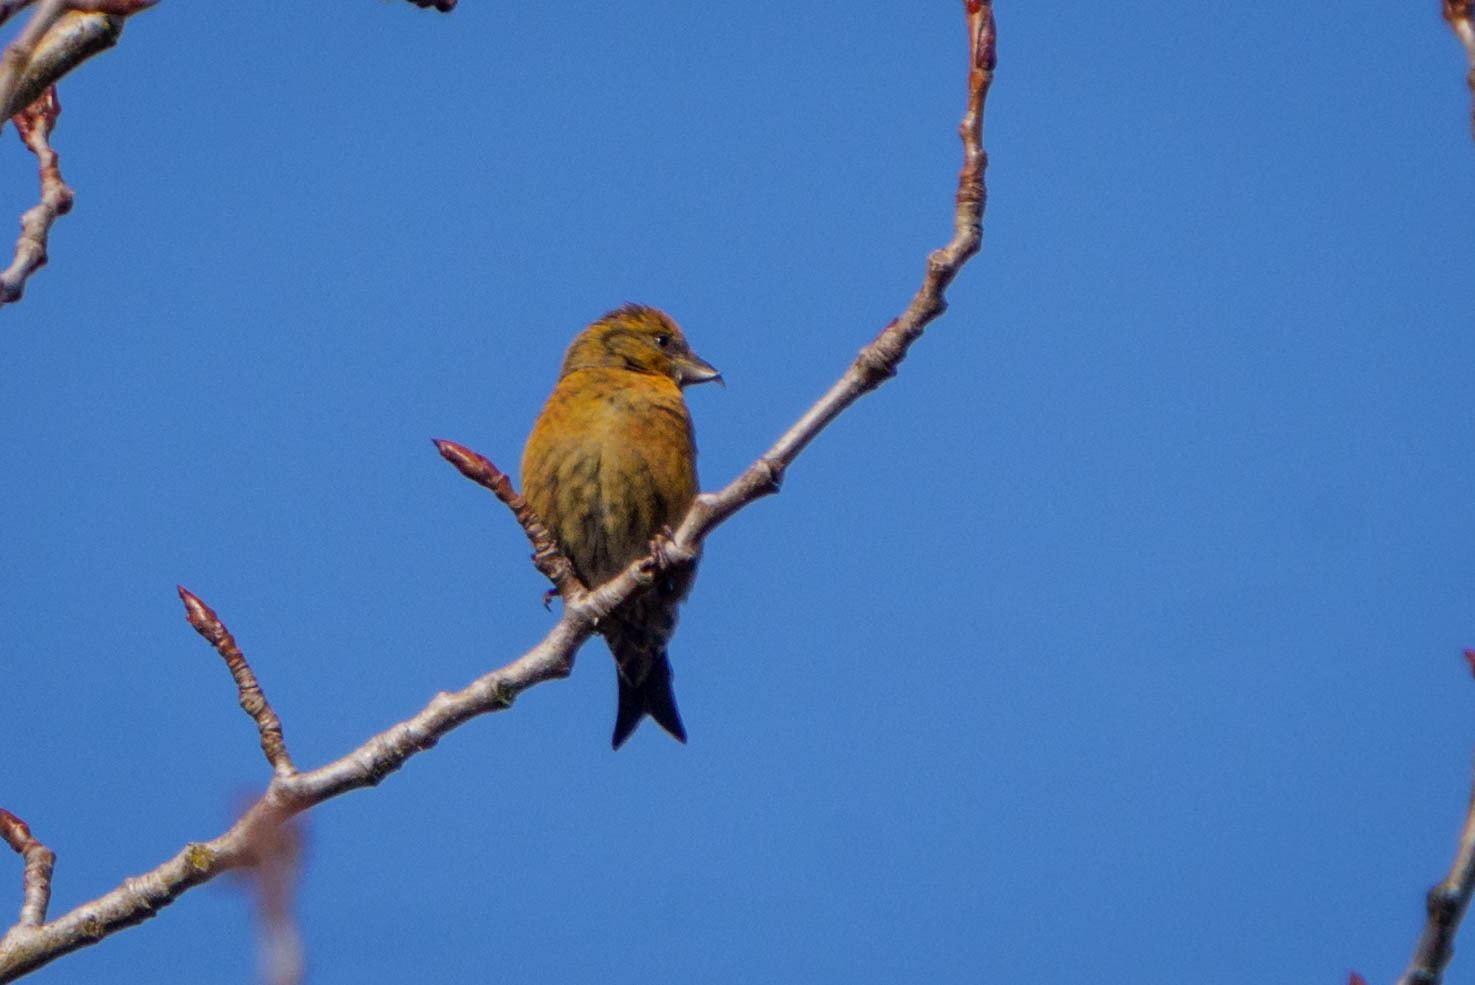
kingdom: Animalia
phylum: Chordata
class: Aves
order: Passeriformes
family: Fringillidae
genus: Loxia
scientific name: Loxia curvirostra
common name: Red crossbill
